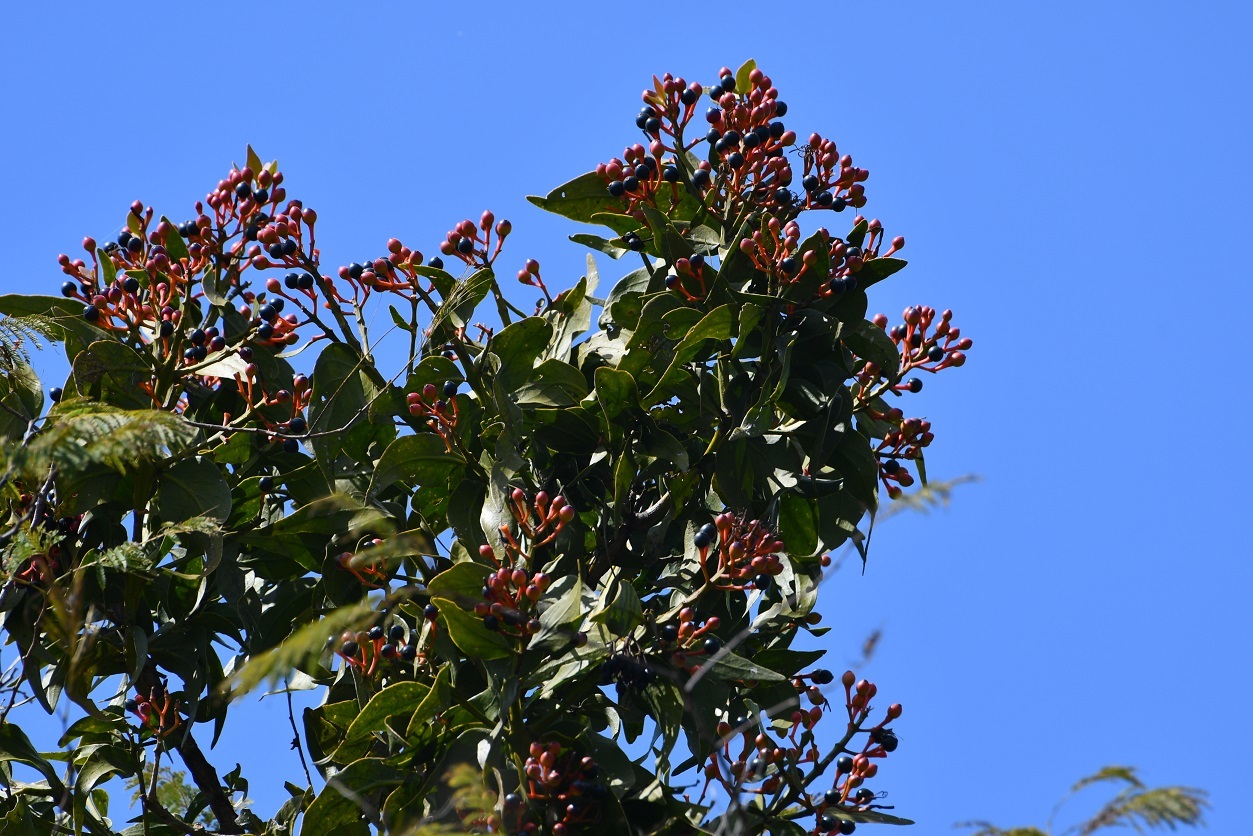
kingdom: Plantae
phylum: Tracheophyta
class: Magnoliopsida
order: Santalales
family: Loranthaceae
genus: Psittacanthus
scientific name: Psittacanthus mayanus
